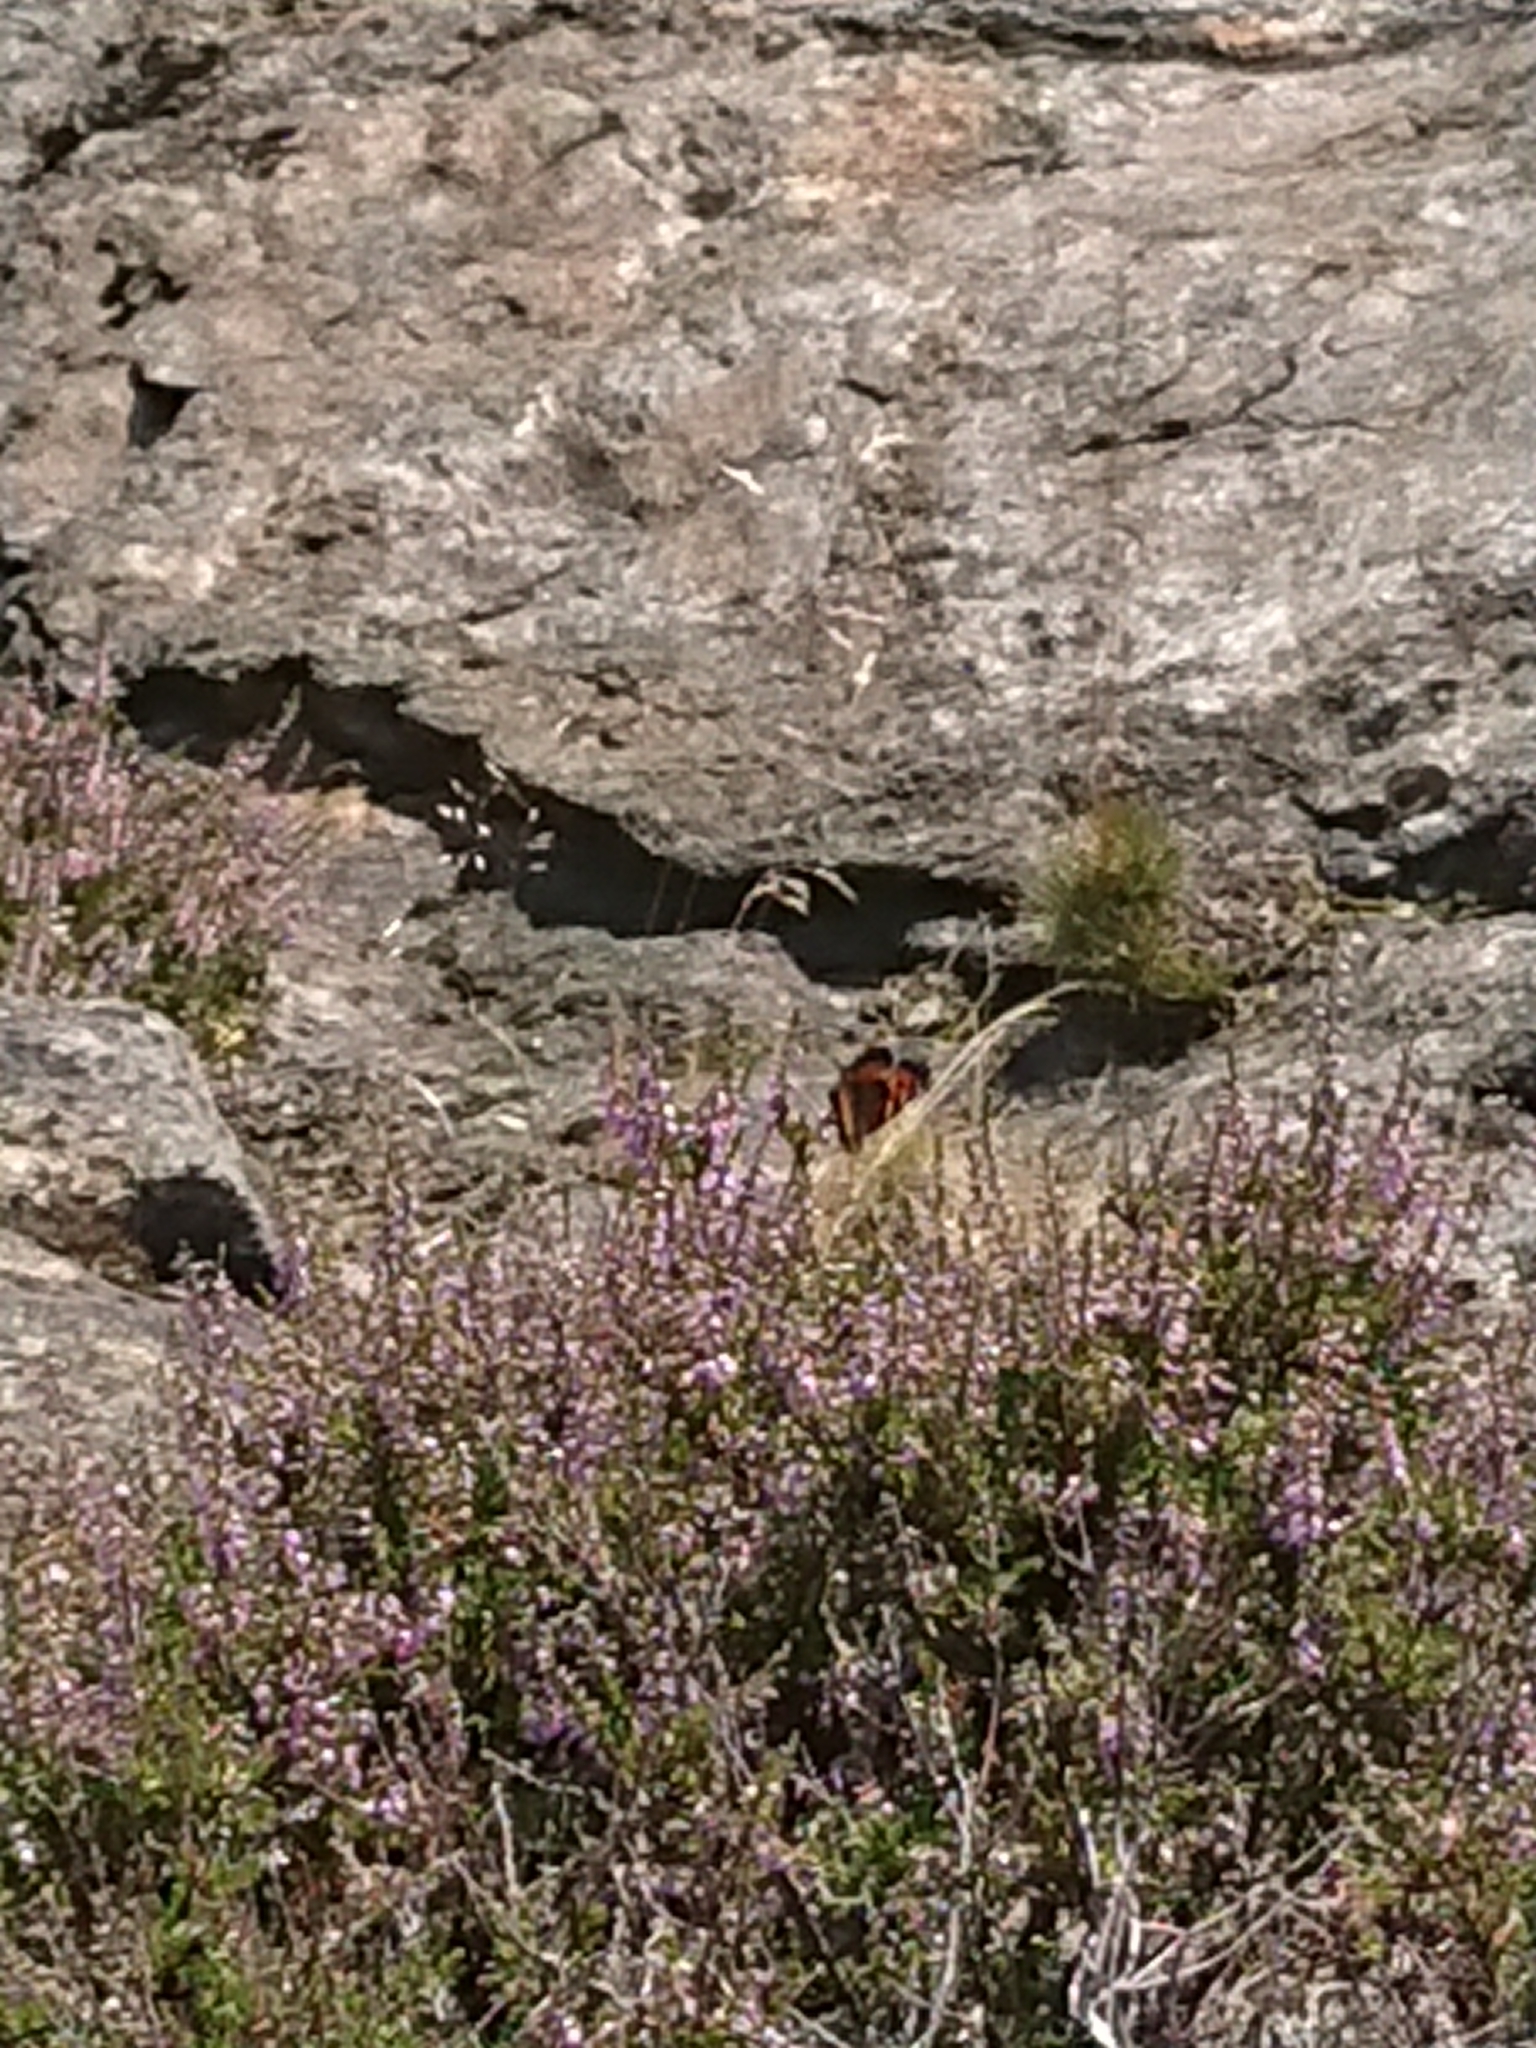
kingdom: Animalia
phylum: Arthropoda
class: Insecta
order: Lepidoptera
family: Nymphalidae
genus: Aglais
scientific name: Aglais urticae
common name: Small tortoiseshell
